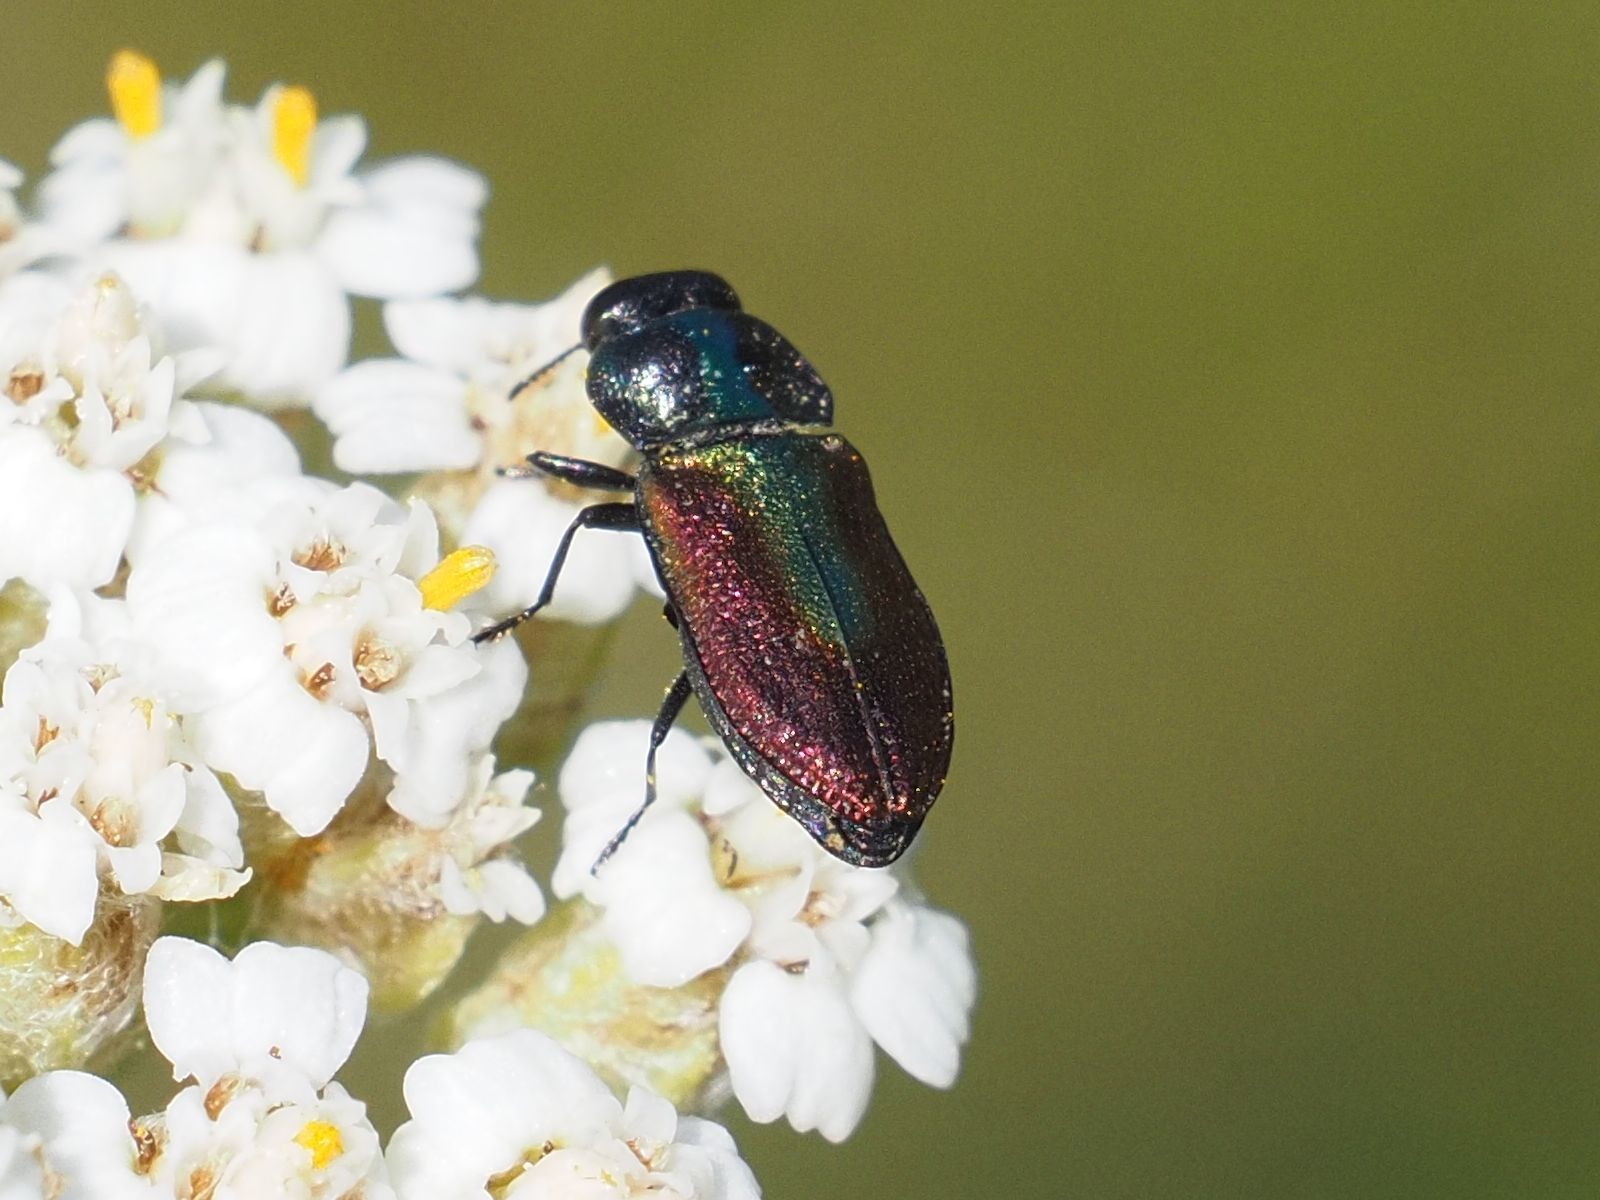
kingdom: Animalia
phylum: Arthropoda
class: Insecta
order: Coleoptera
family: Buprestidae
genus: Anthaxia
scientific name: Anthaxia fulgurans
